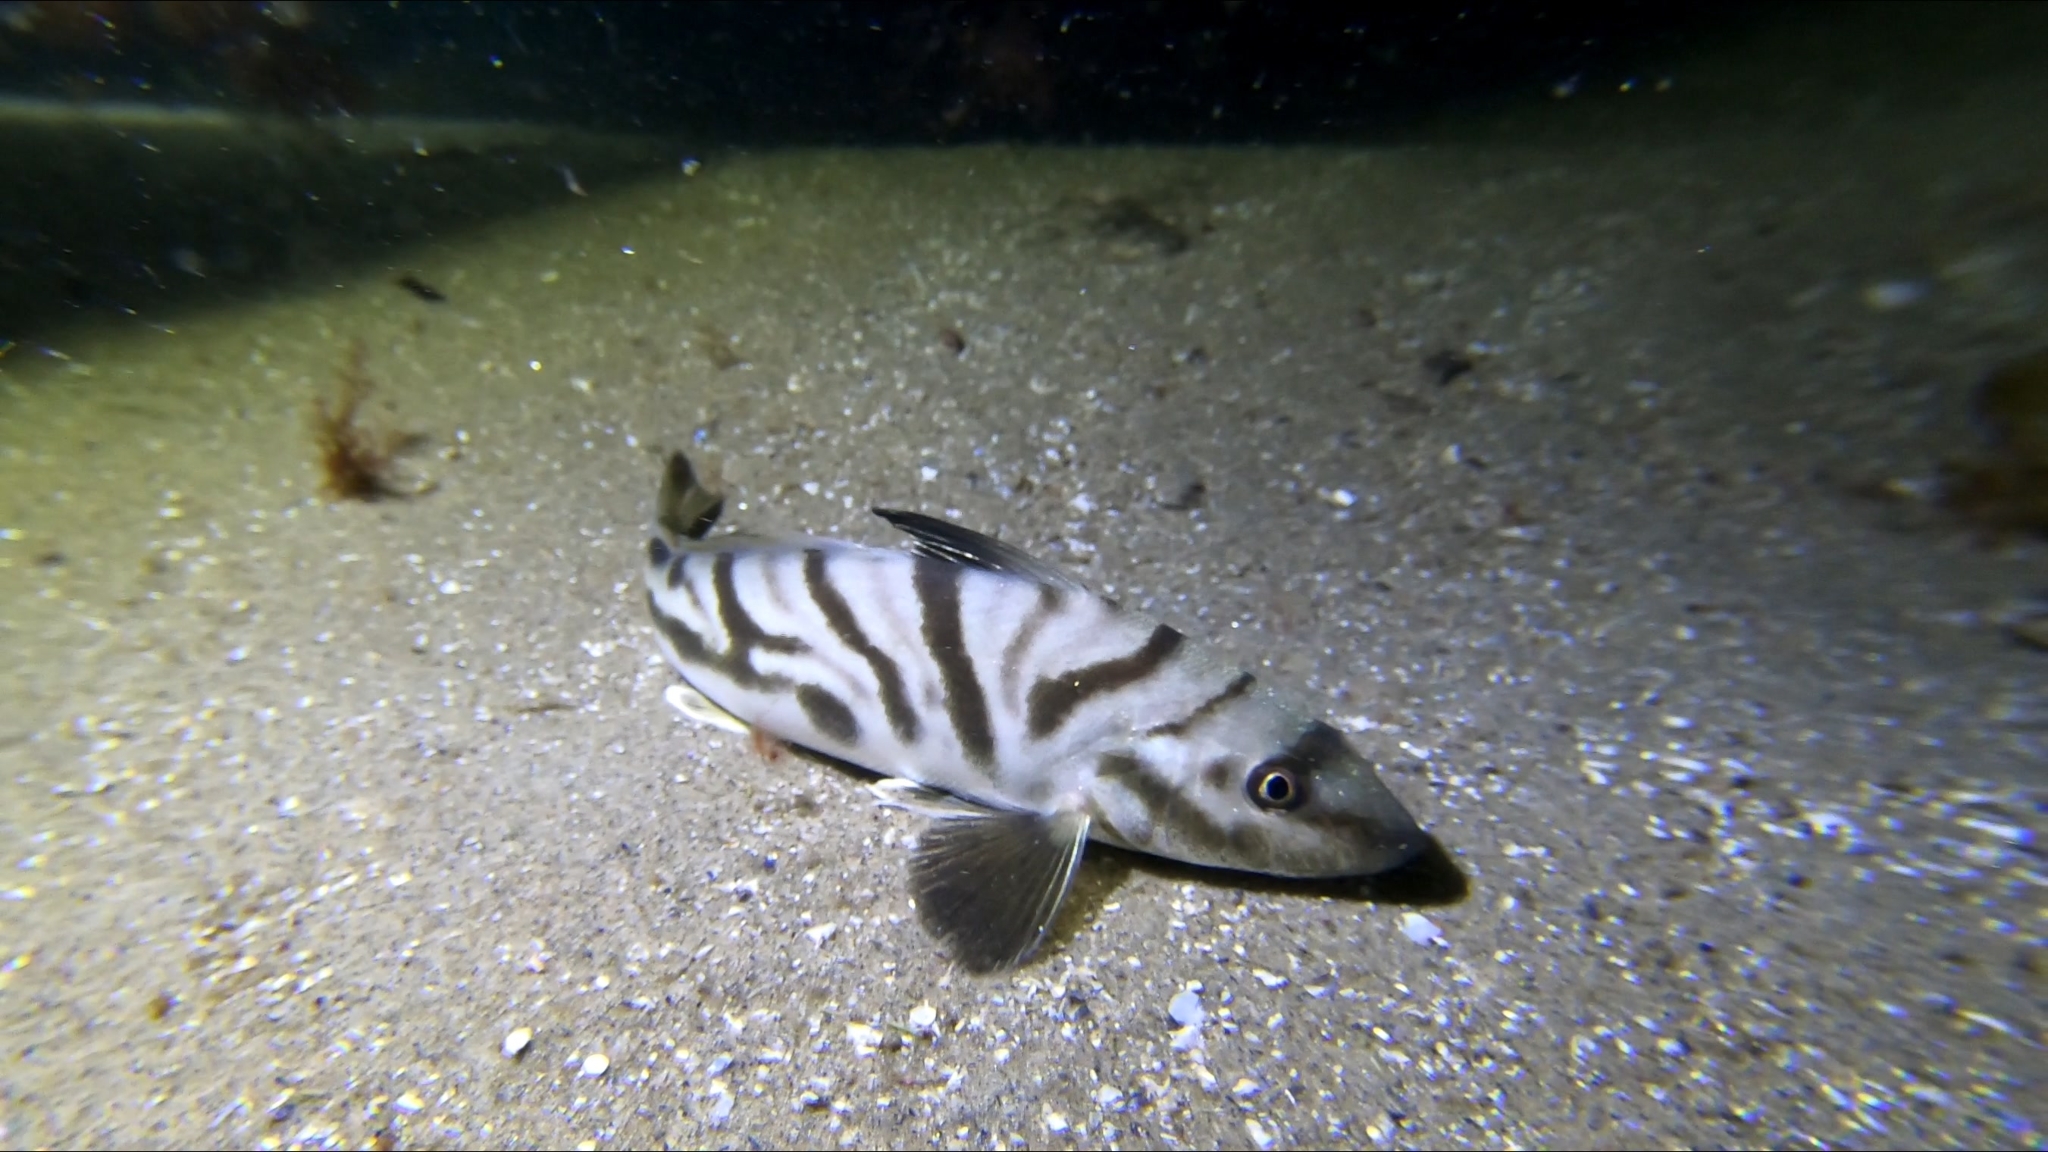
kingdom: Animalia
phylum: Chordata
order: Perciformes
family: Sciaenidae
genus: Menticirrhus
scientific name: Menticirrhus saxatilis
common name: Kingfish
